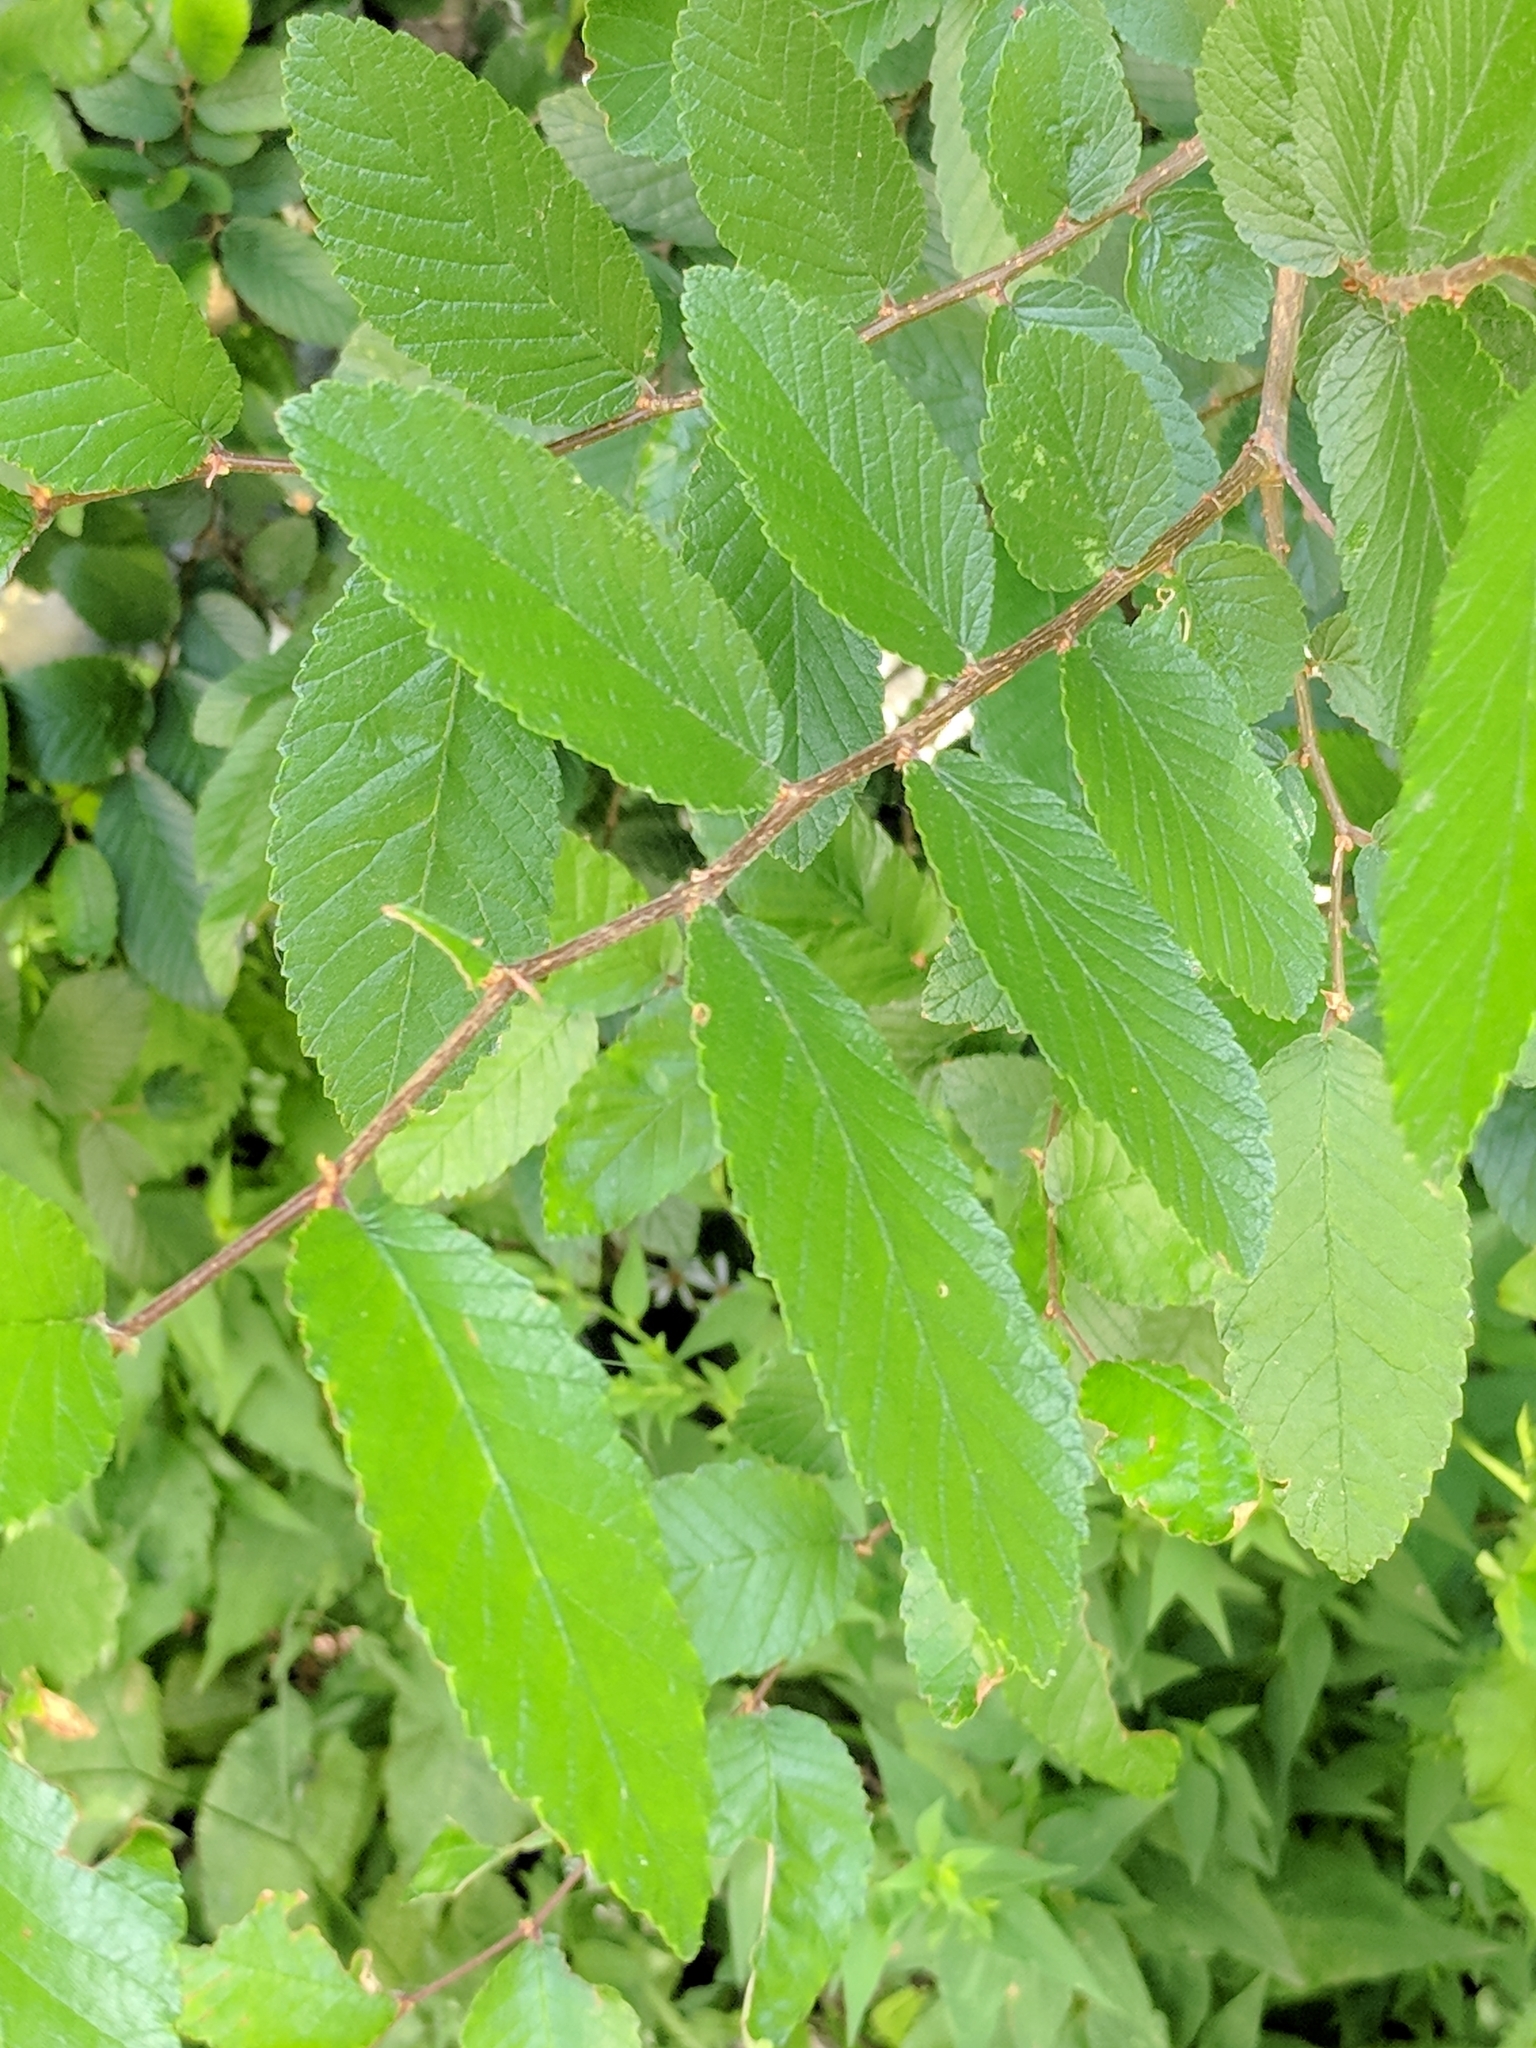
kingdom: Plantae
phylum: Tracheophyta
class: Magnoliopsida
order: Rosales
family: Ulmaceae
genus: Ulmus
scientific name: Ulmus crassifolia
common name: Basket elm
